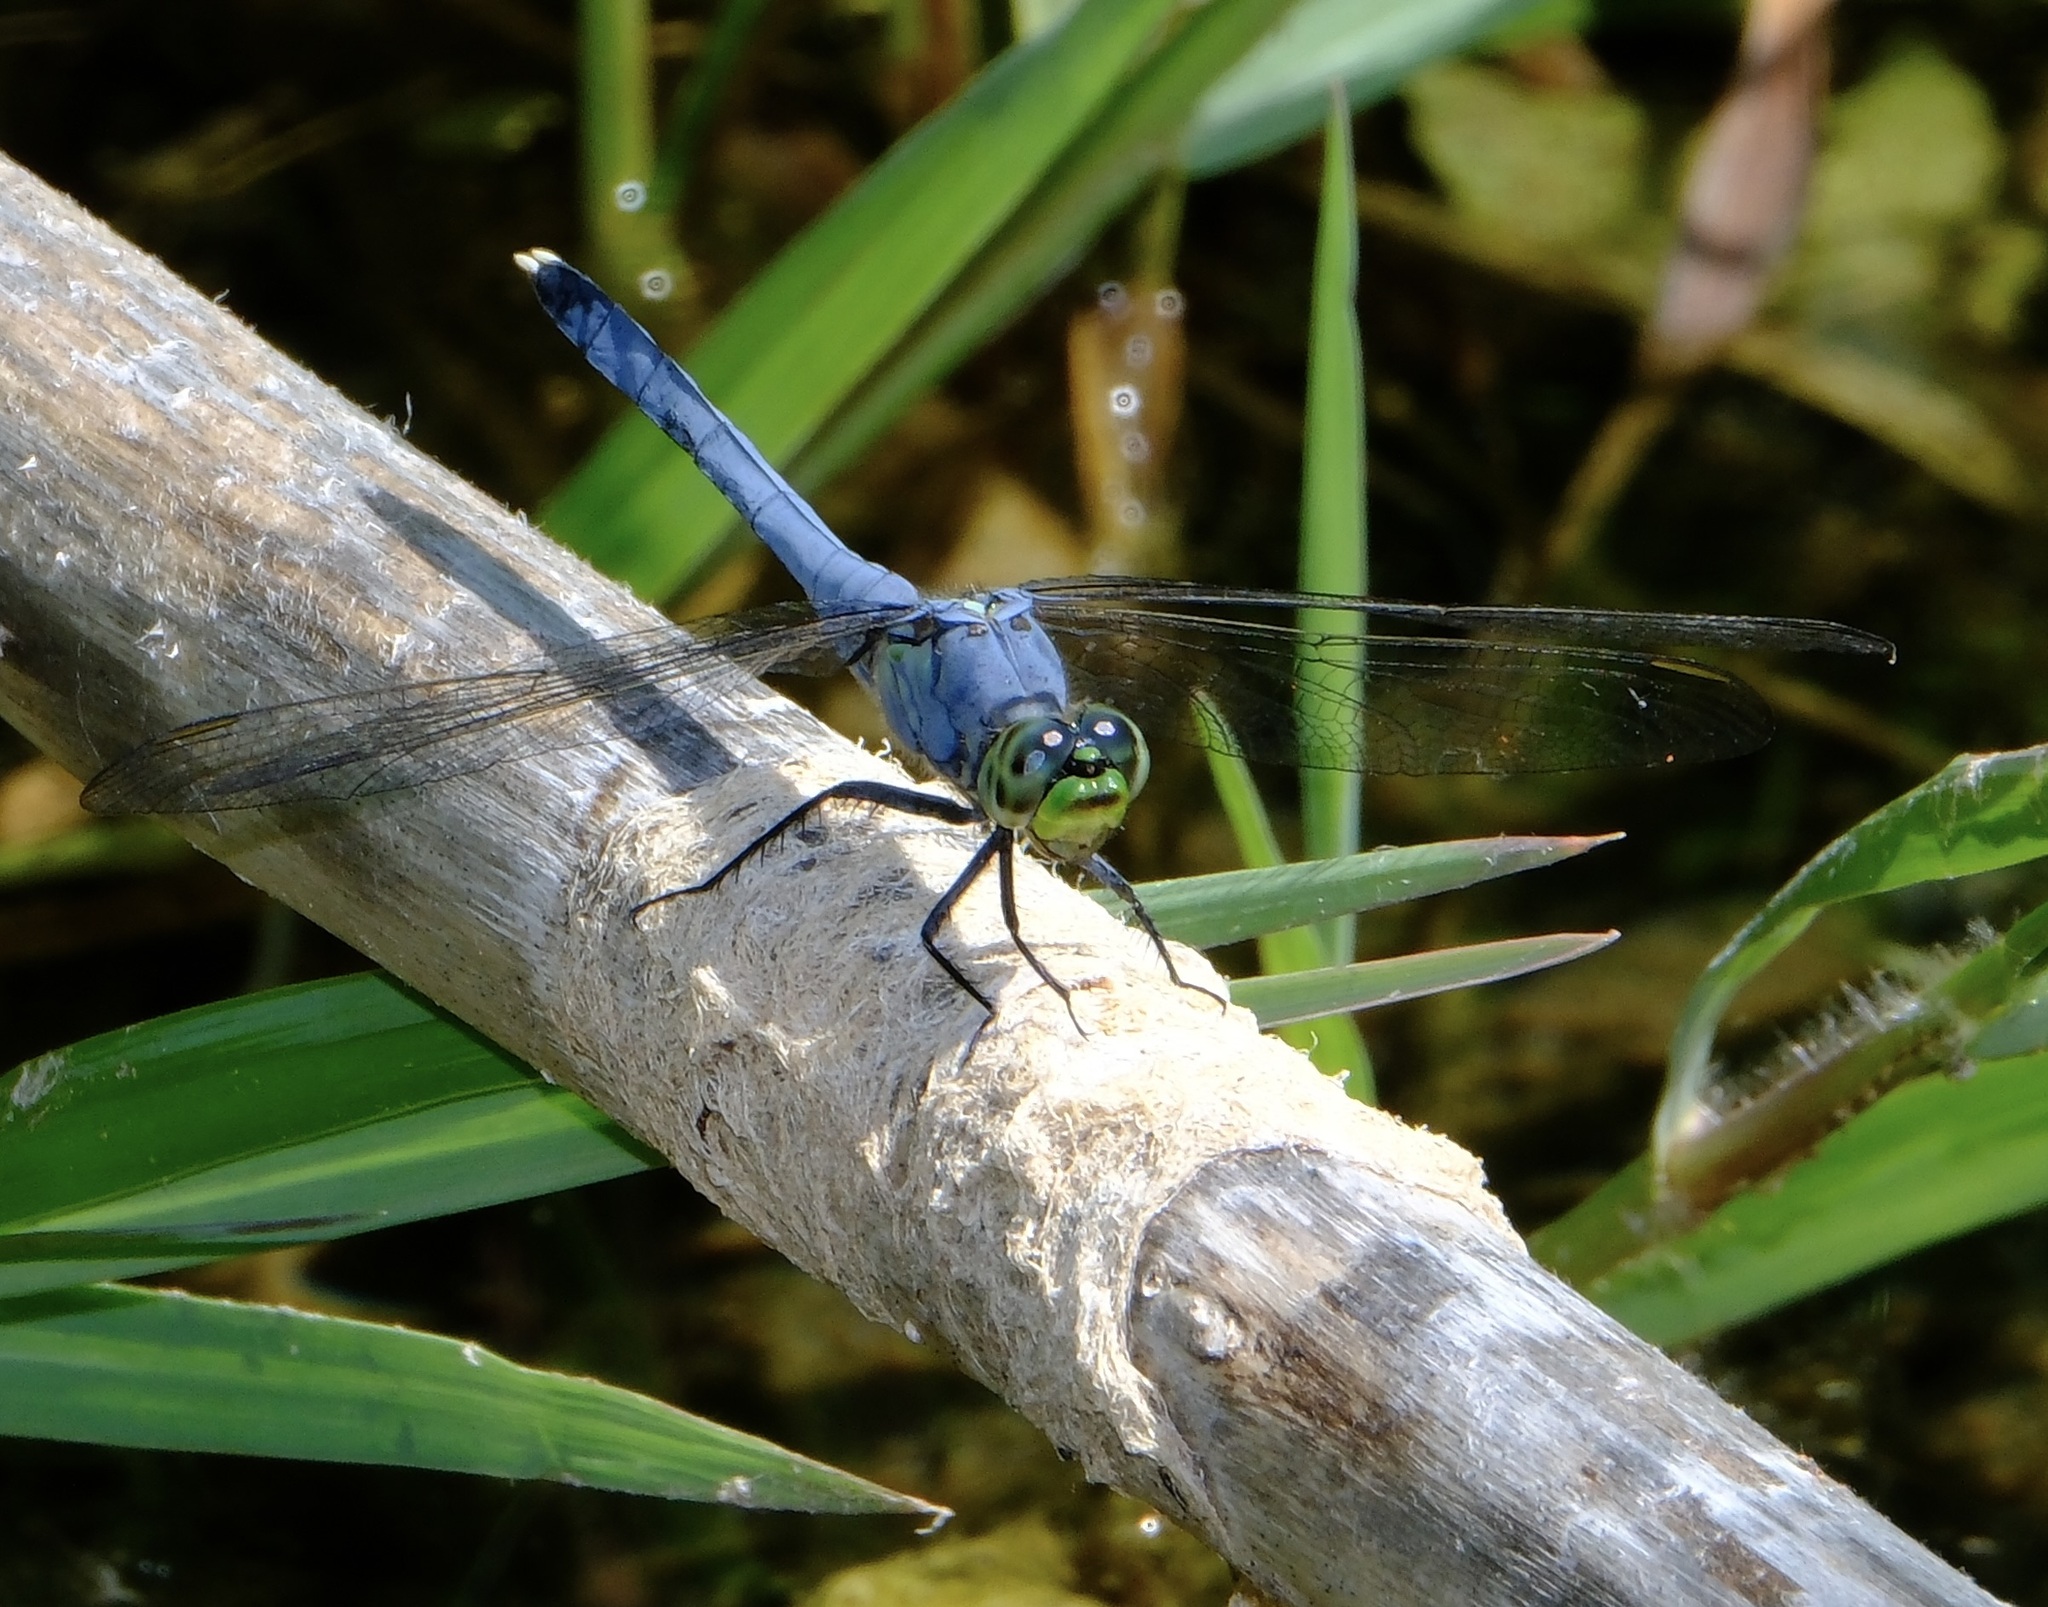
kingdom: Animalia
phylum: Arthropoda
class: Insecta
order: Odonata
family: Libellulidae
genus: Erythemis
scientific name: Erythemis simplicicollis
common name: Eastern pondhawk
